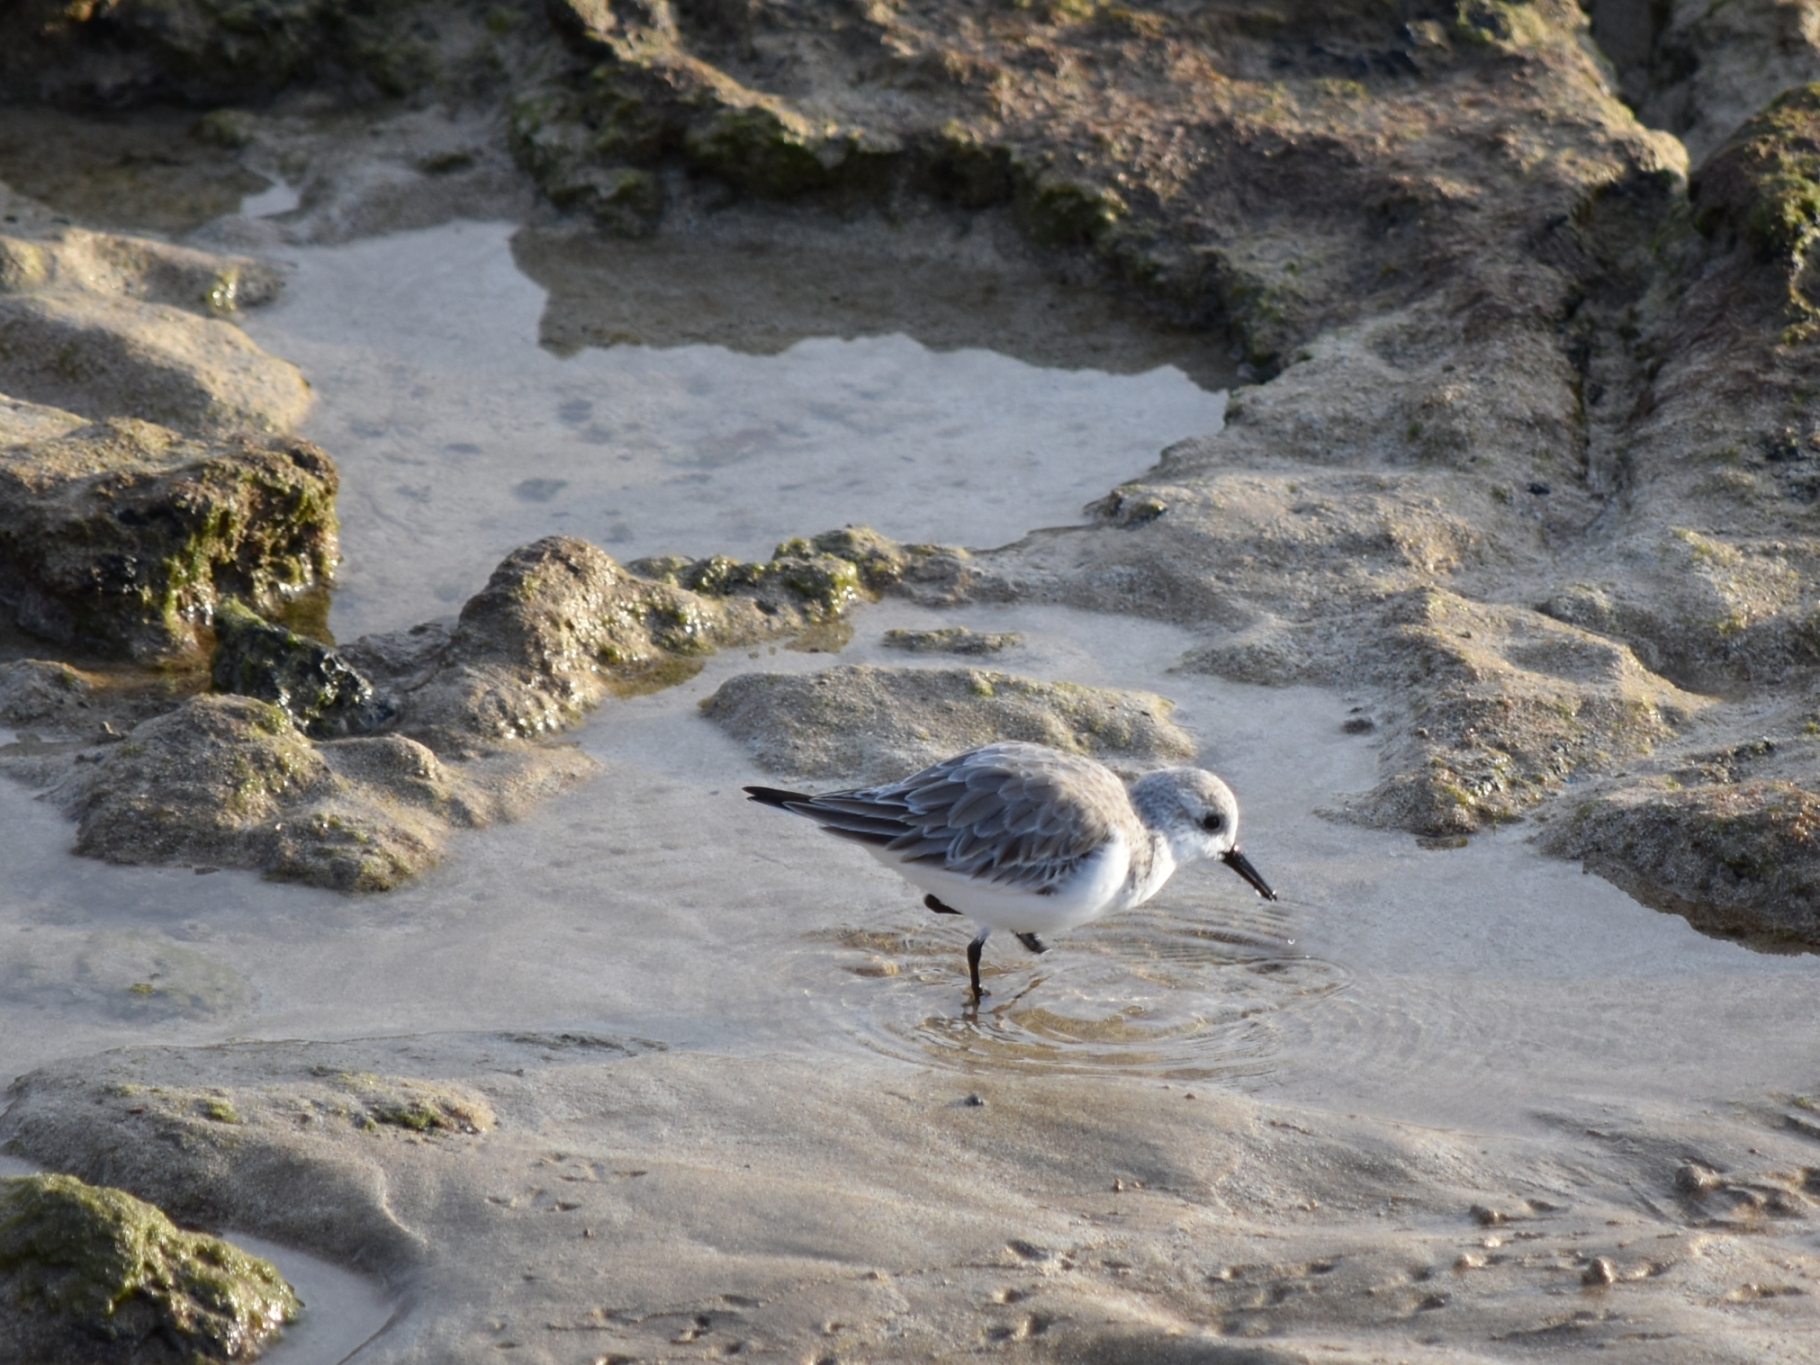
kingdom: Animalia
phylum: Chordata
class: Aves
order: Charadriiformes
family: Scolopacidae
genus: Calidris
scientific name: Calidris alba
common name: Sanderling
